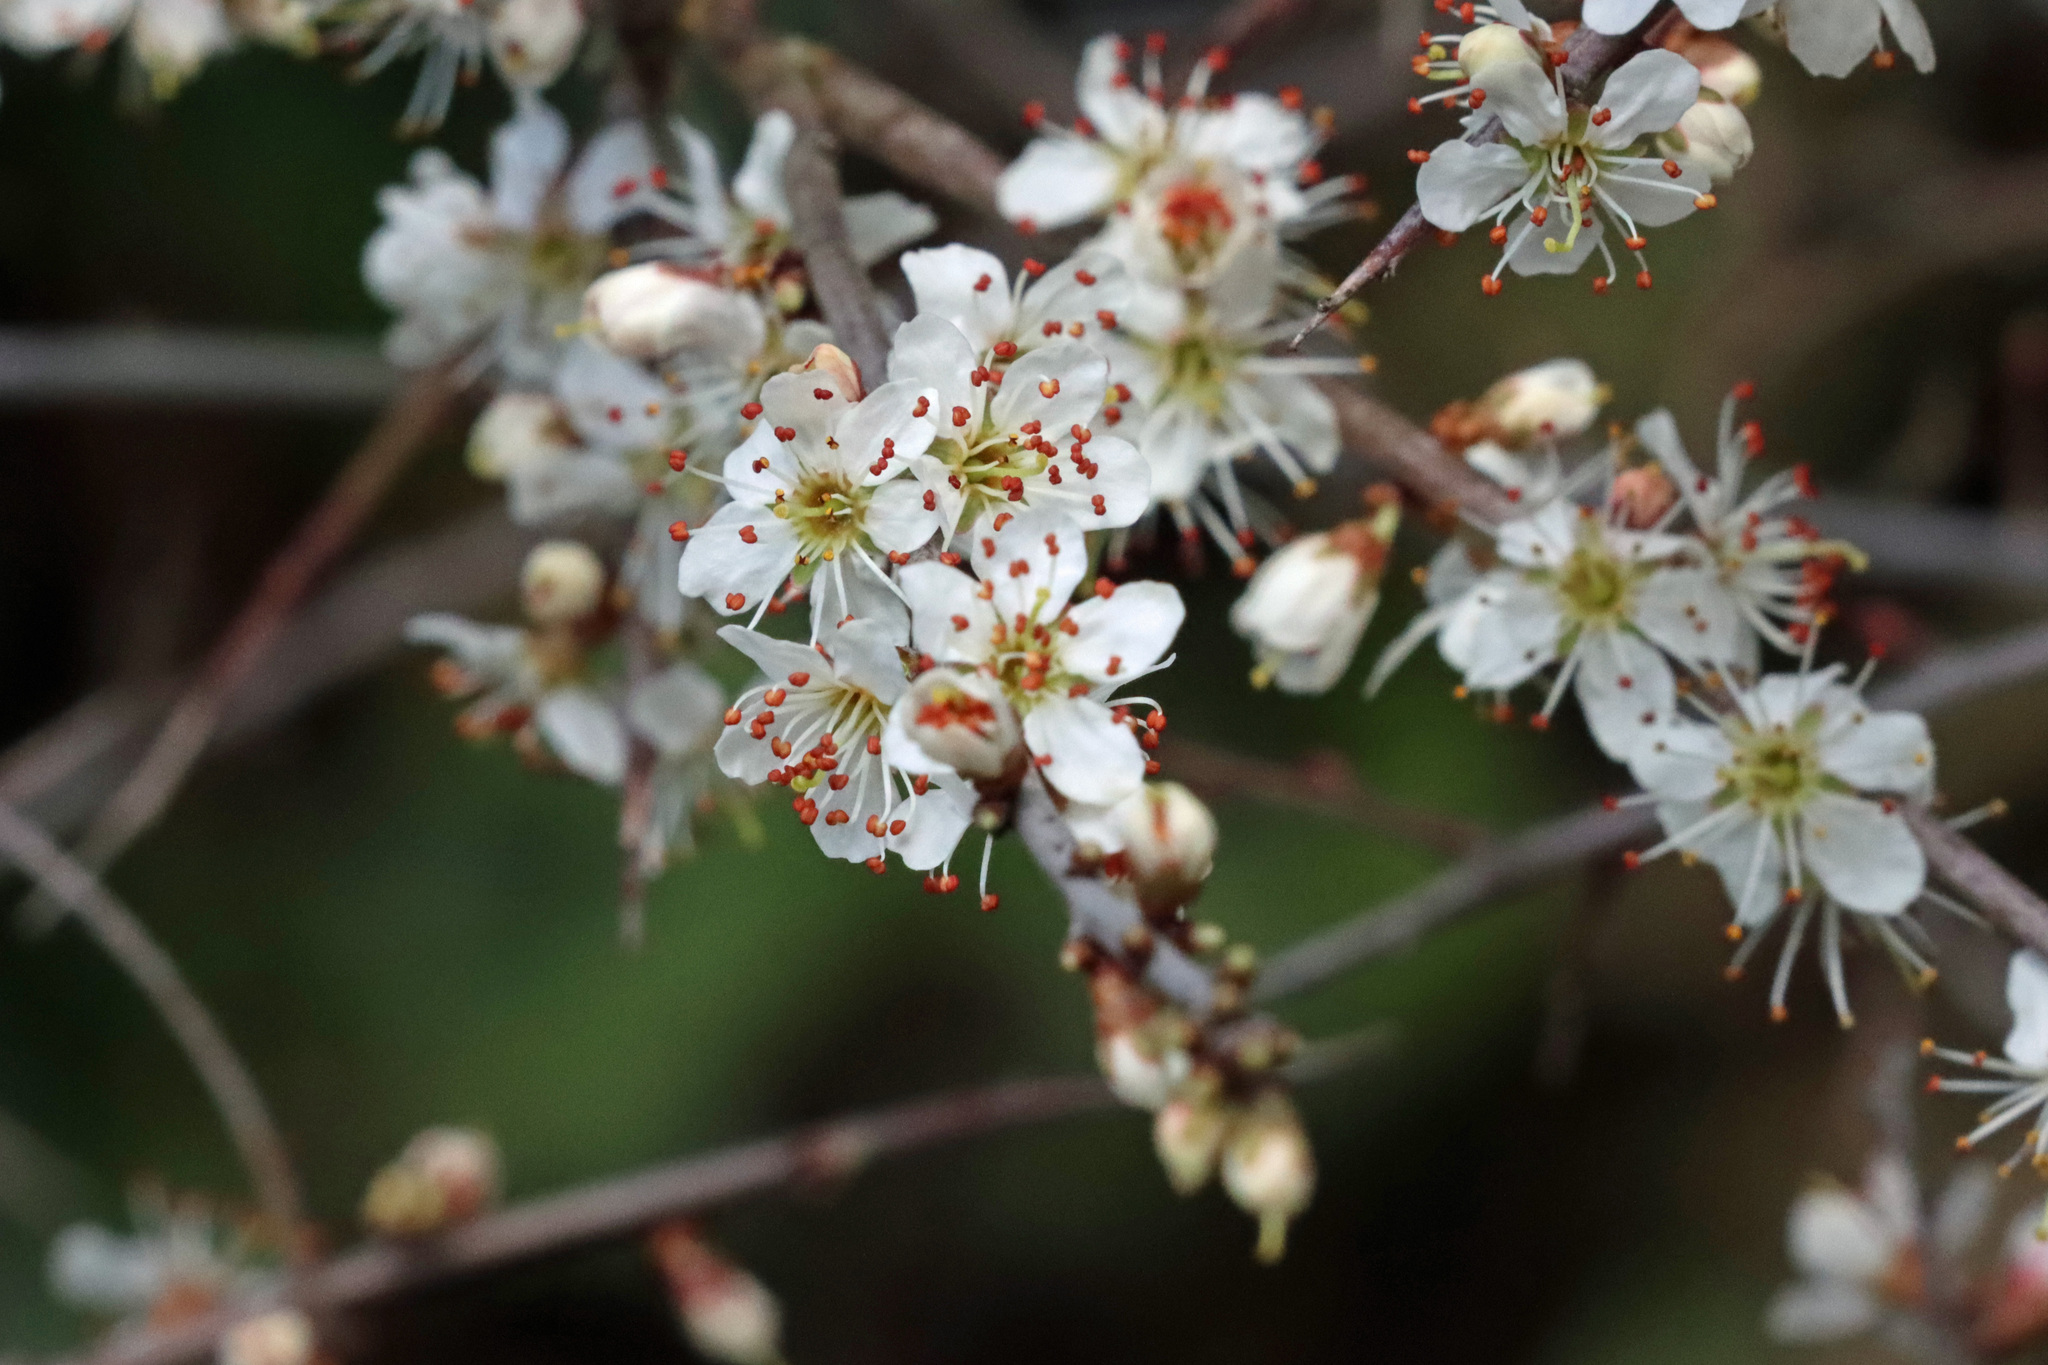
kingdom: Plantae
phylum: Tracheophyta
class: Magnoliopsida
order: Rosales
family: Rosaceae
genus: Prunus
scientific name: Prunus spinosa
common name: Blackthorn
